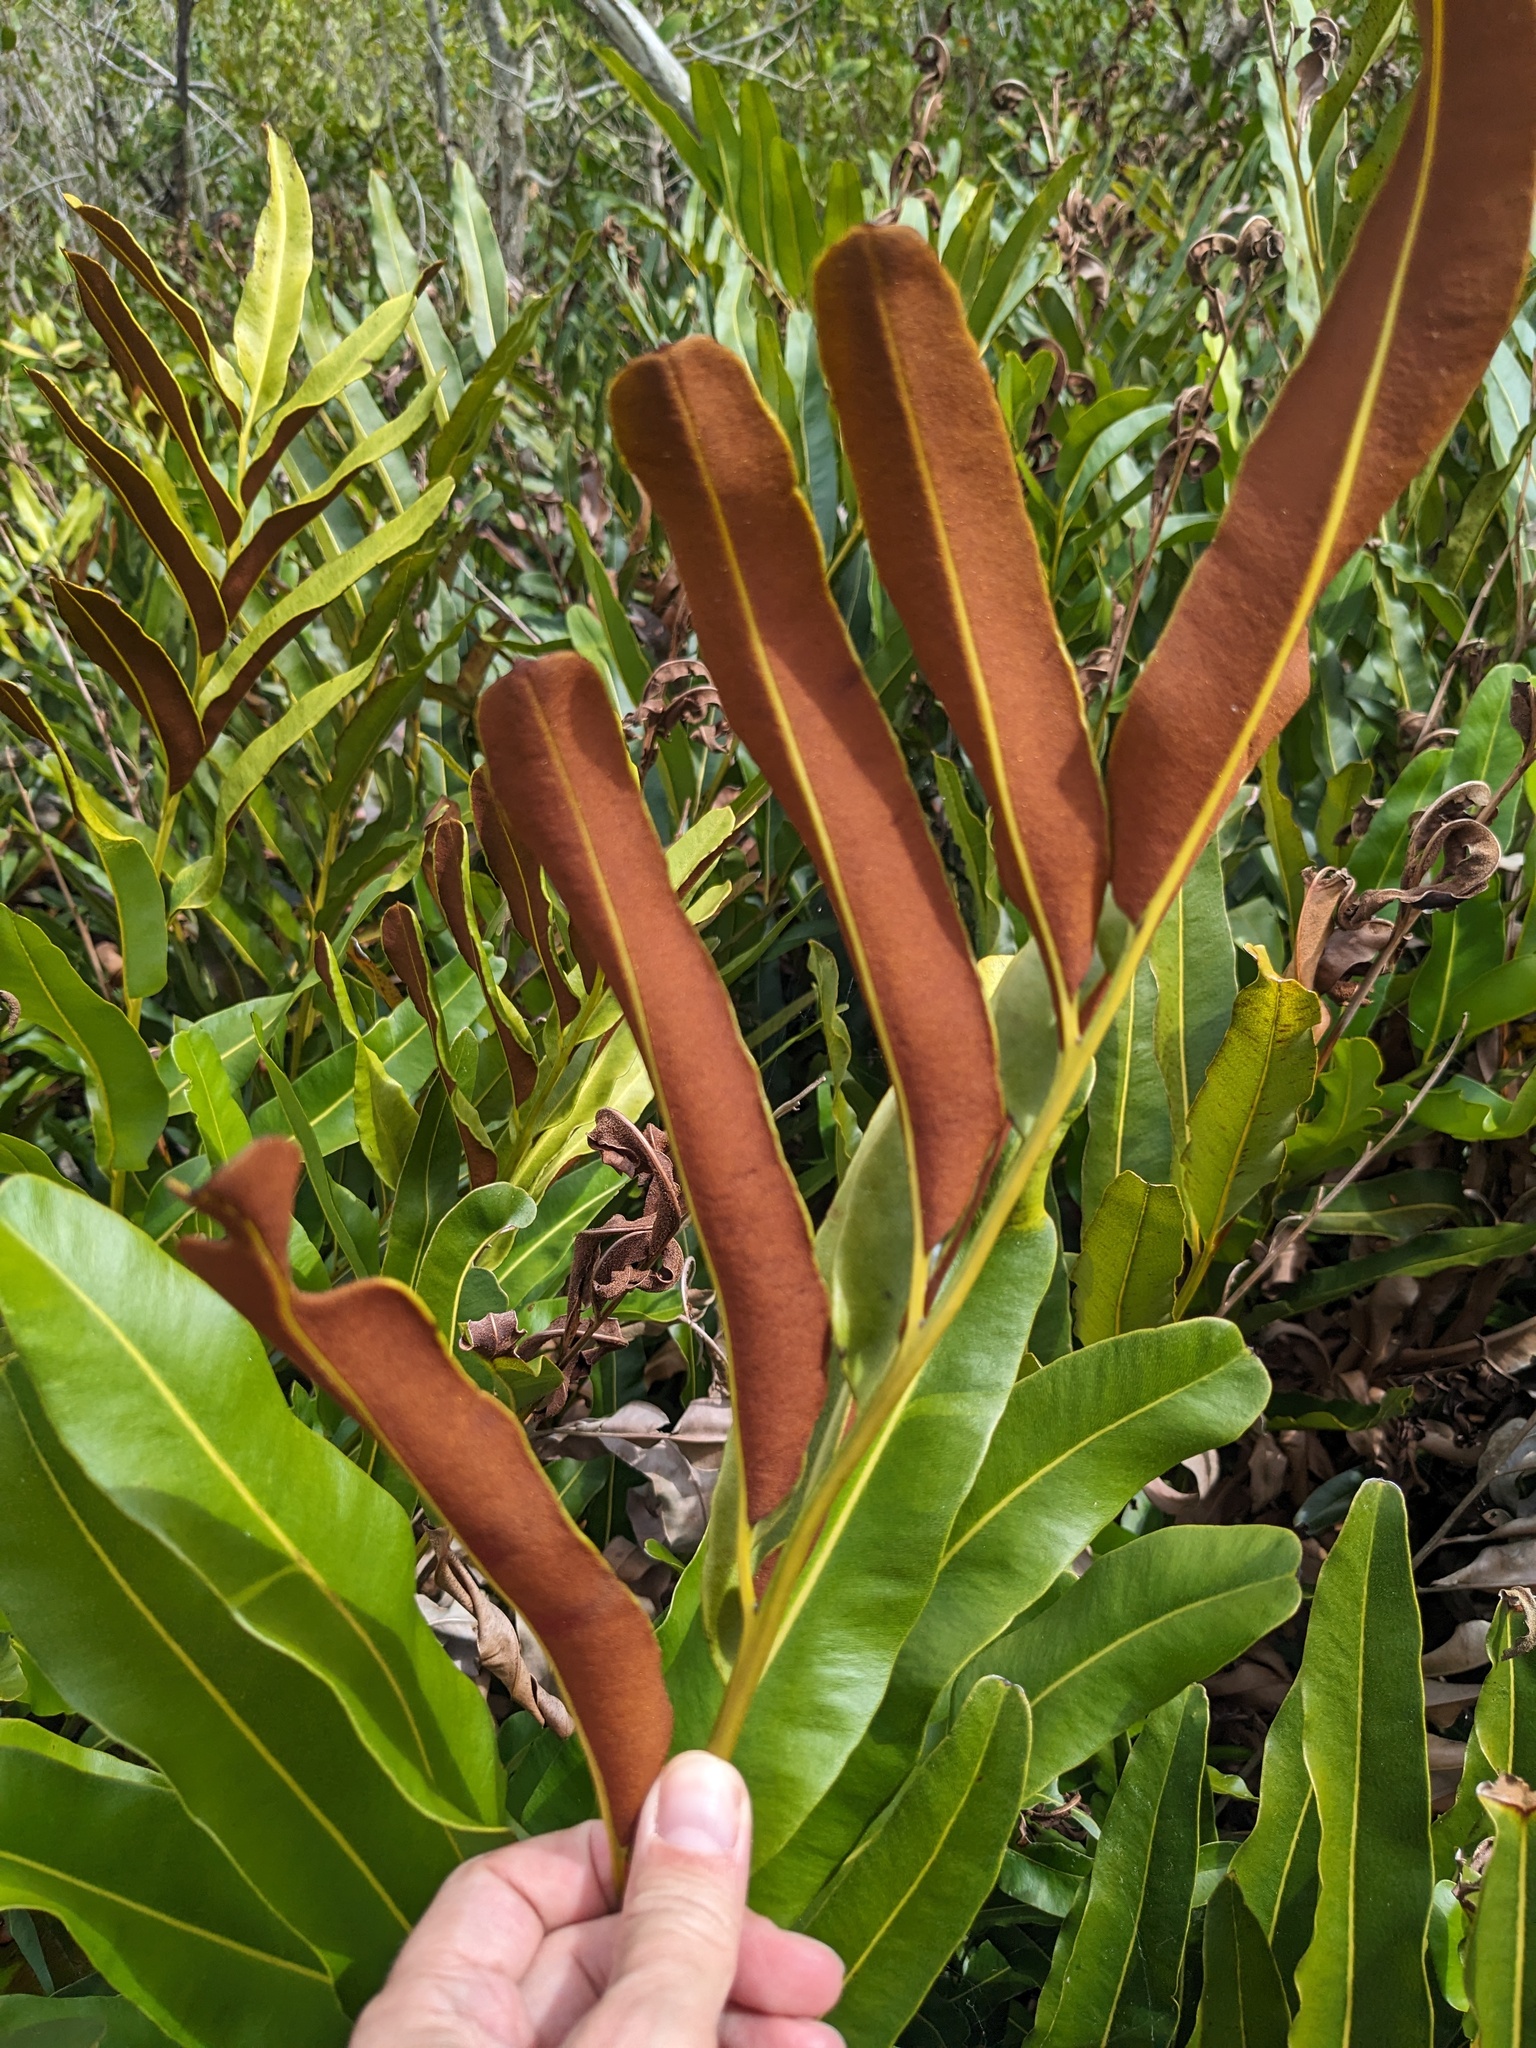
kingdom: Plantae
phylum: Tracheophyta
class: Polypodiopsida
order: Polypodiales
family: Pteridaceae
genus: Acrostichum
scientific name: Acrostichum aureum
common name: Leather fern
